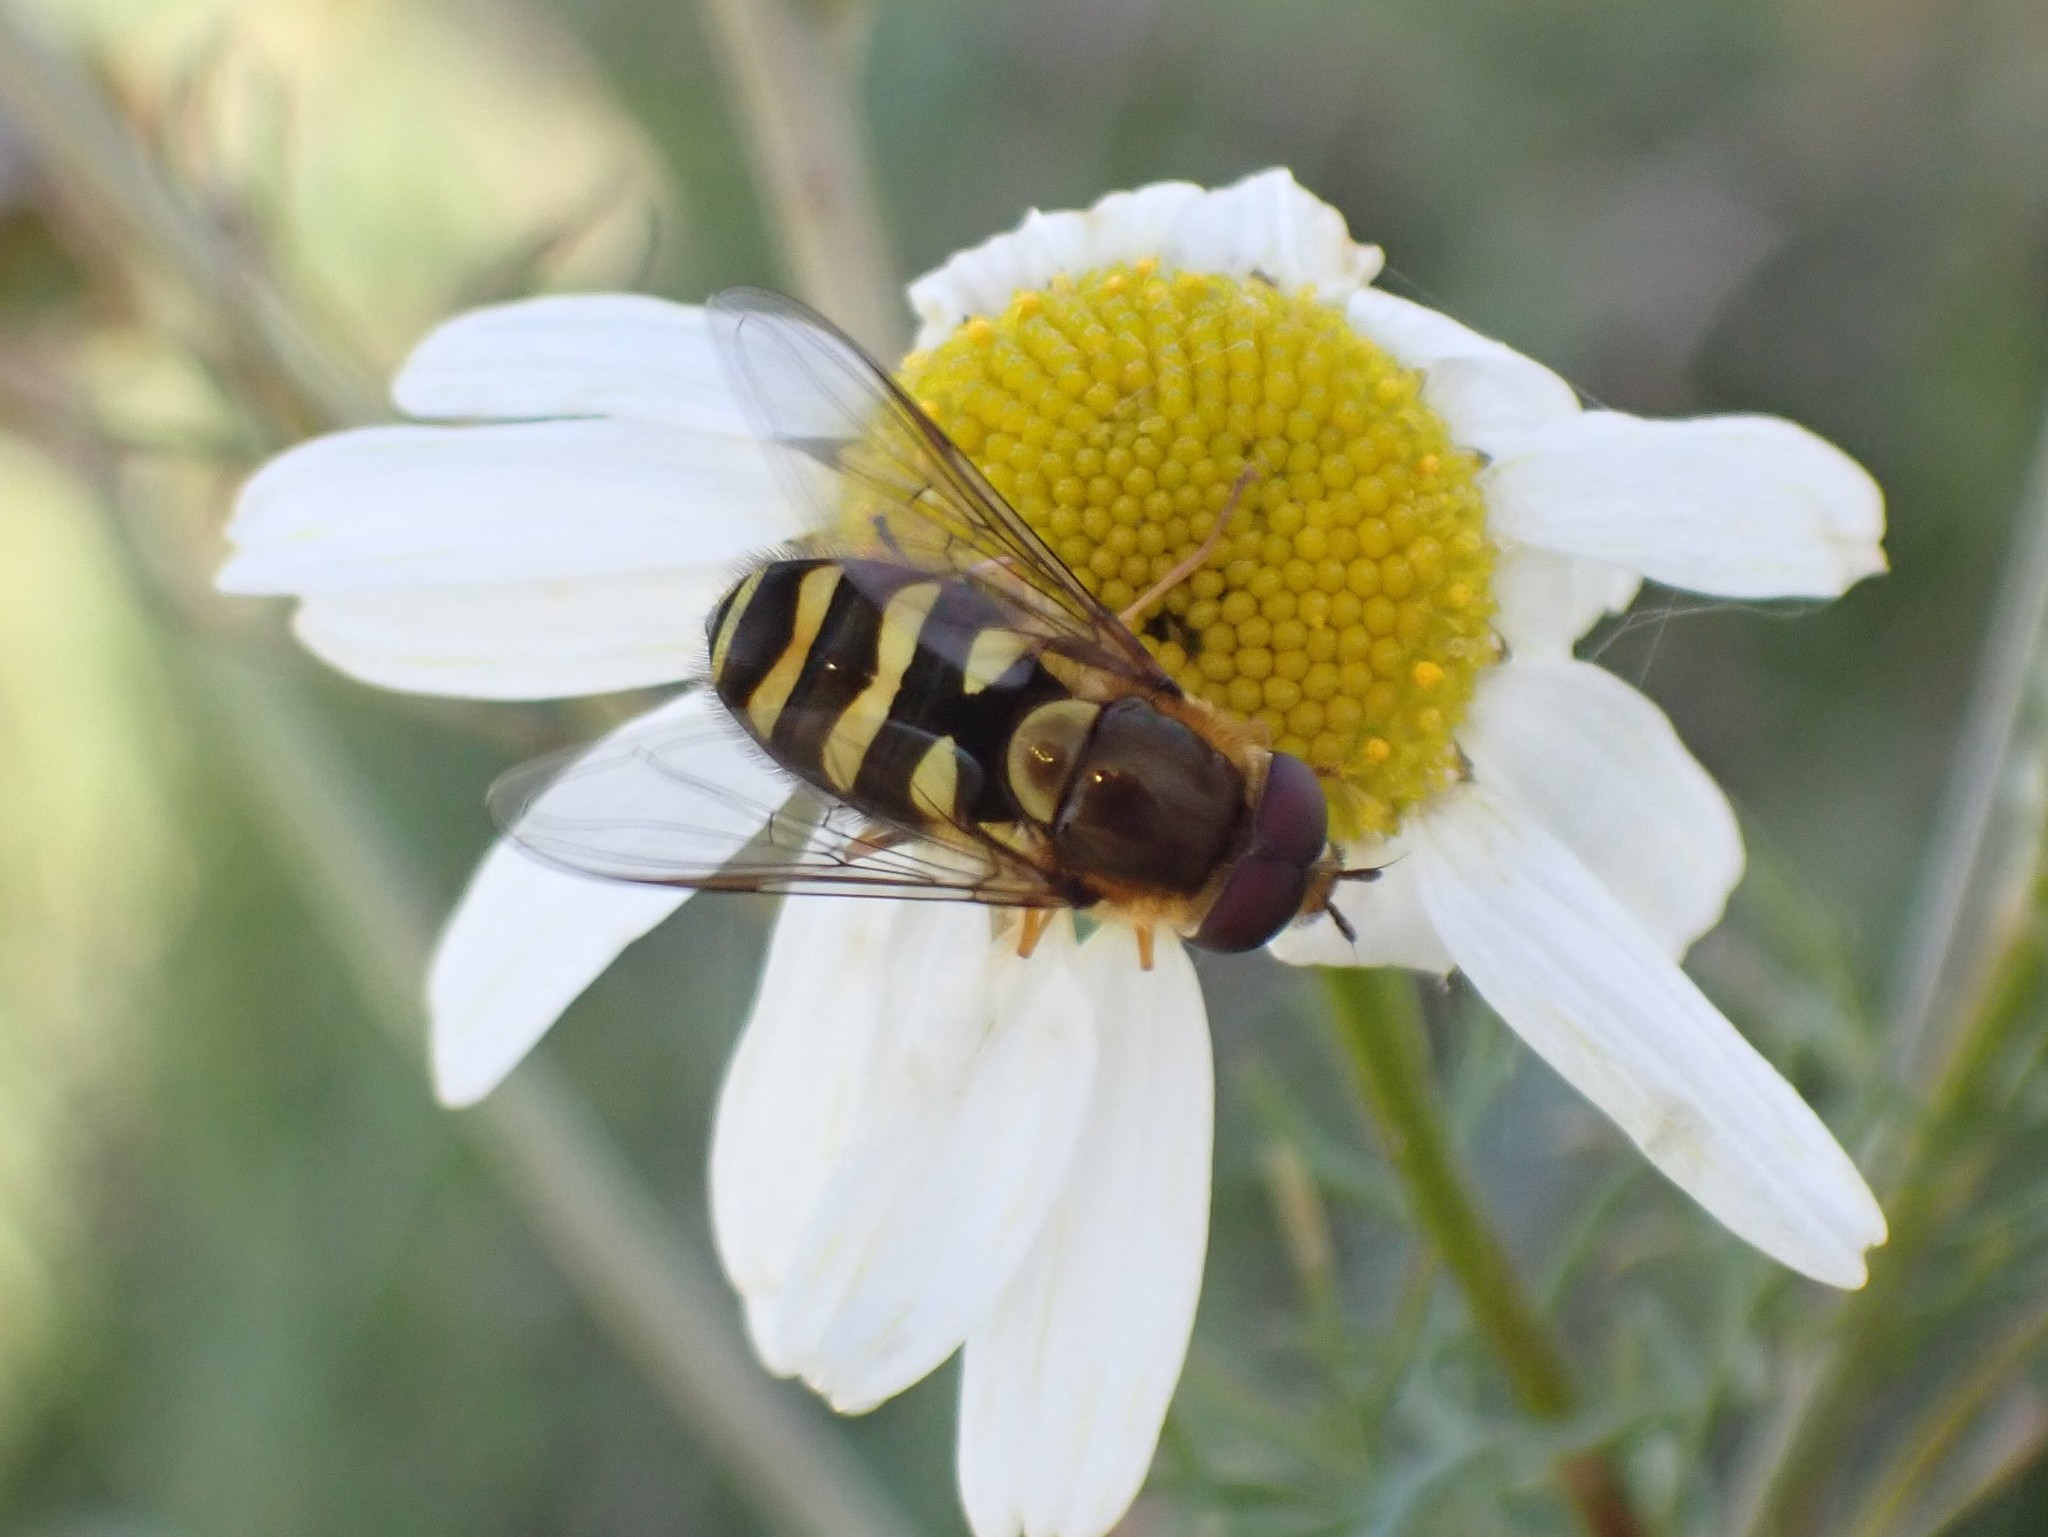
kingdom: Animalia
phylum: Arthropoda
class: Insecta
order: Diptera
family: Syrphidae
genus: Syrphus
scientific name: Syrphus opinator
